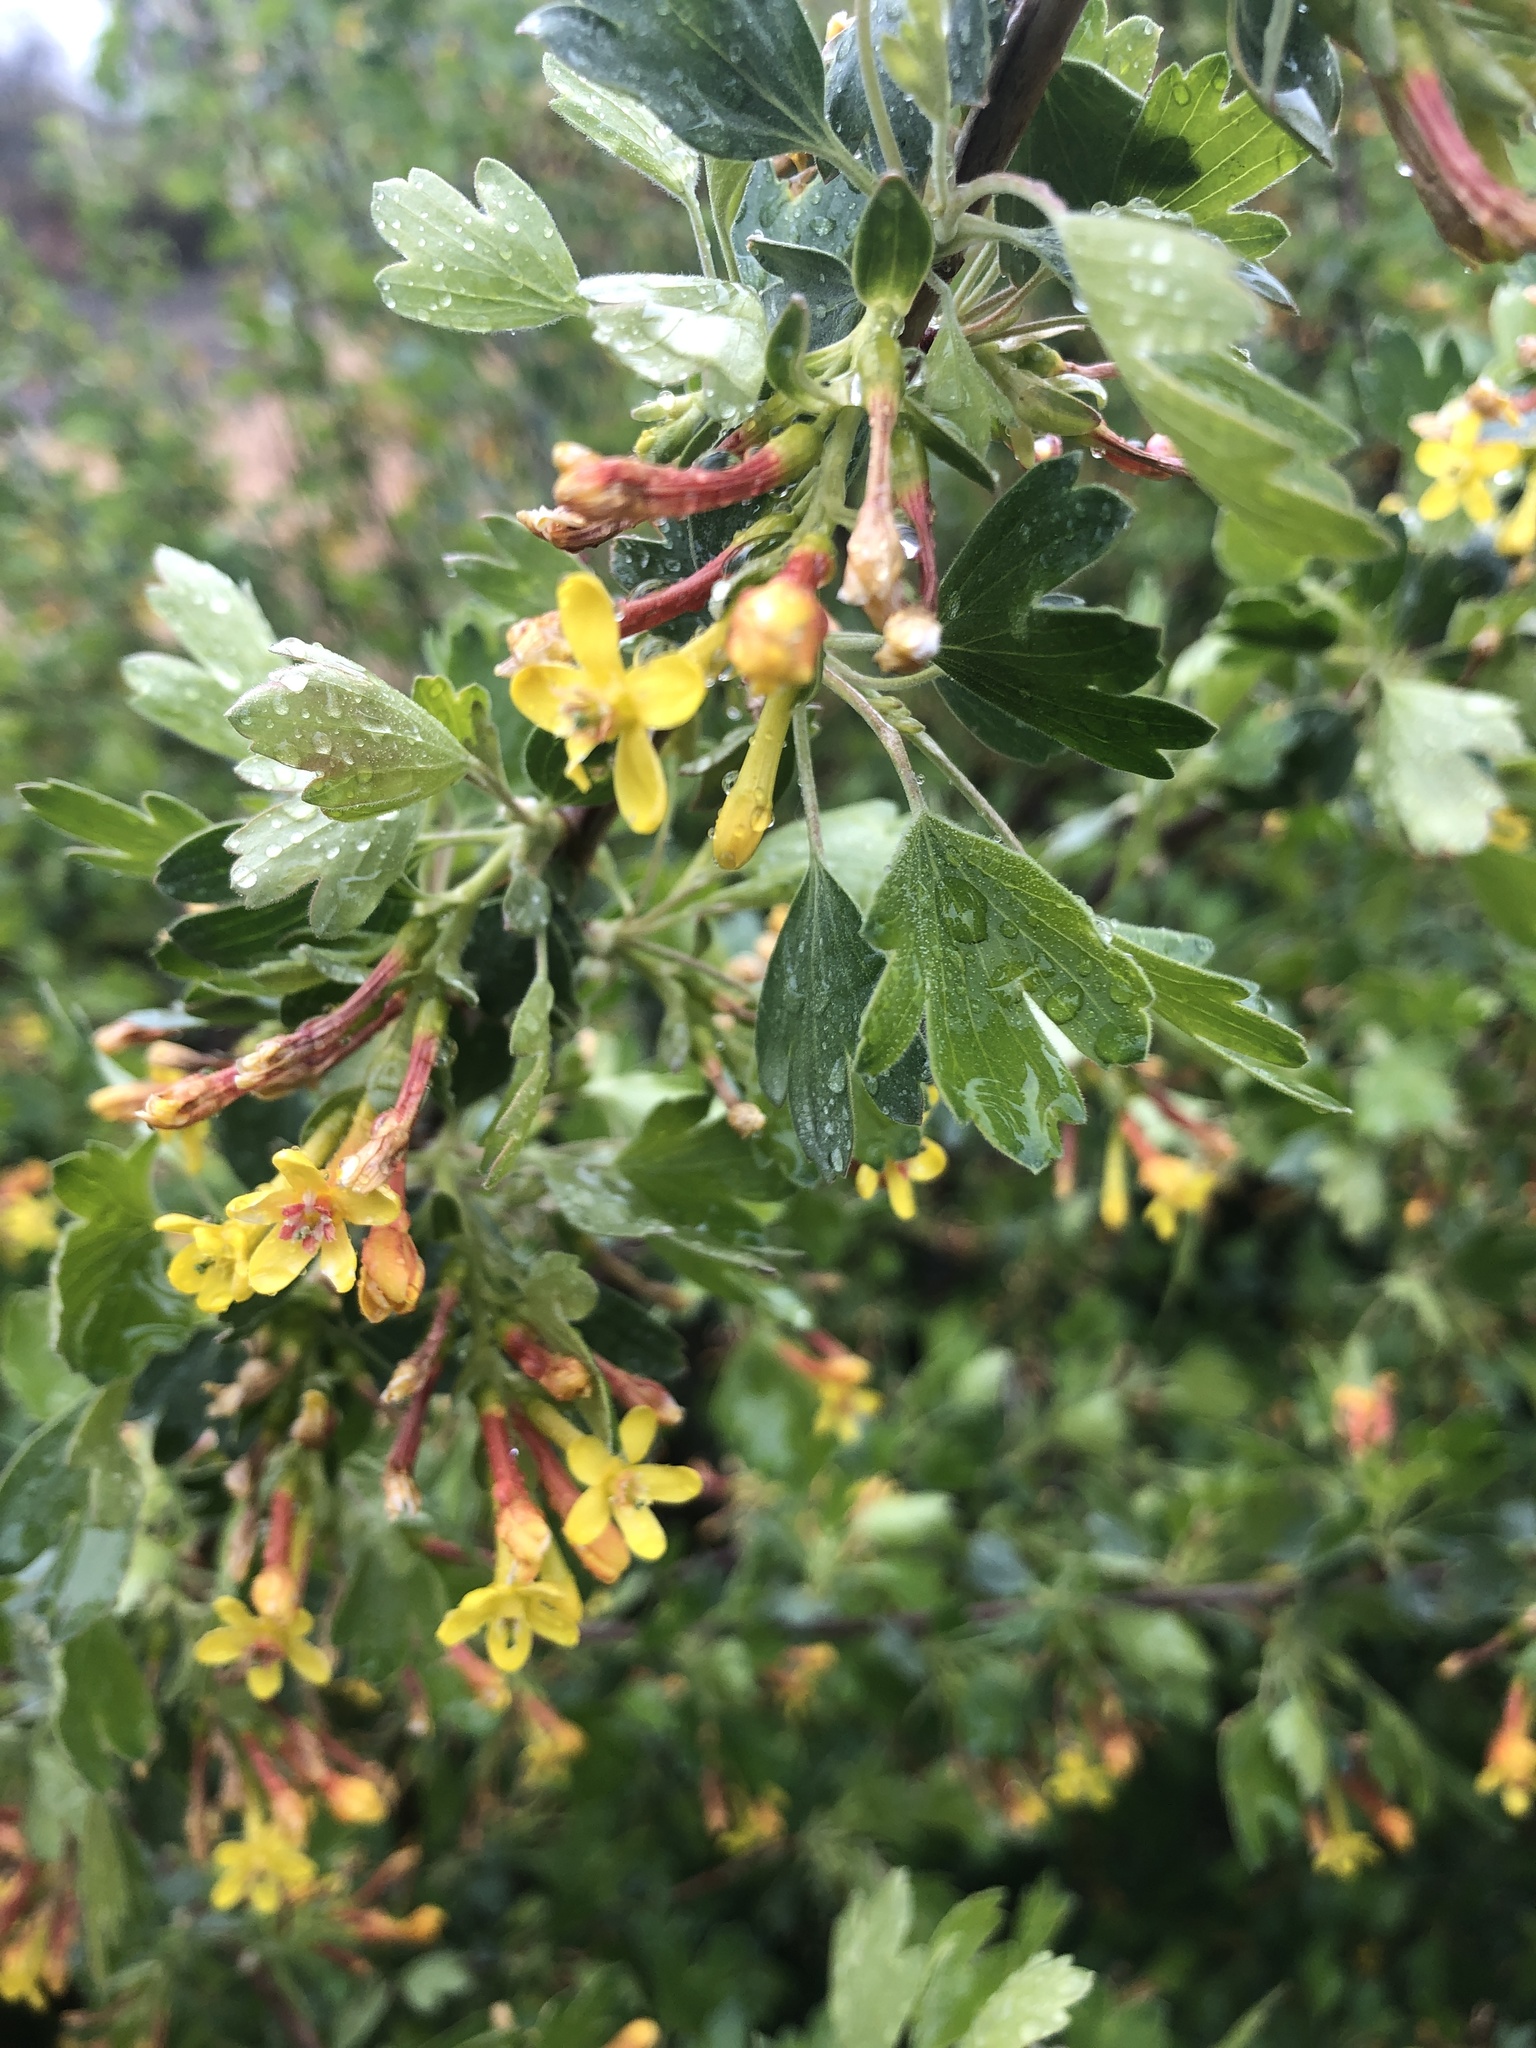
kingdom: Plantae
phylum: Tracheophyta
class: Magnoliopsida
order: Saxifragales
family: Grossulariaceae
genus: Ribes
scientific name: Ribes aureum
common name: Golden currant
